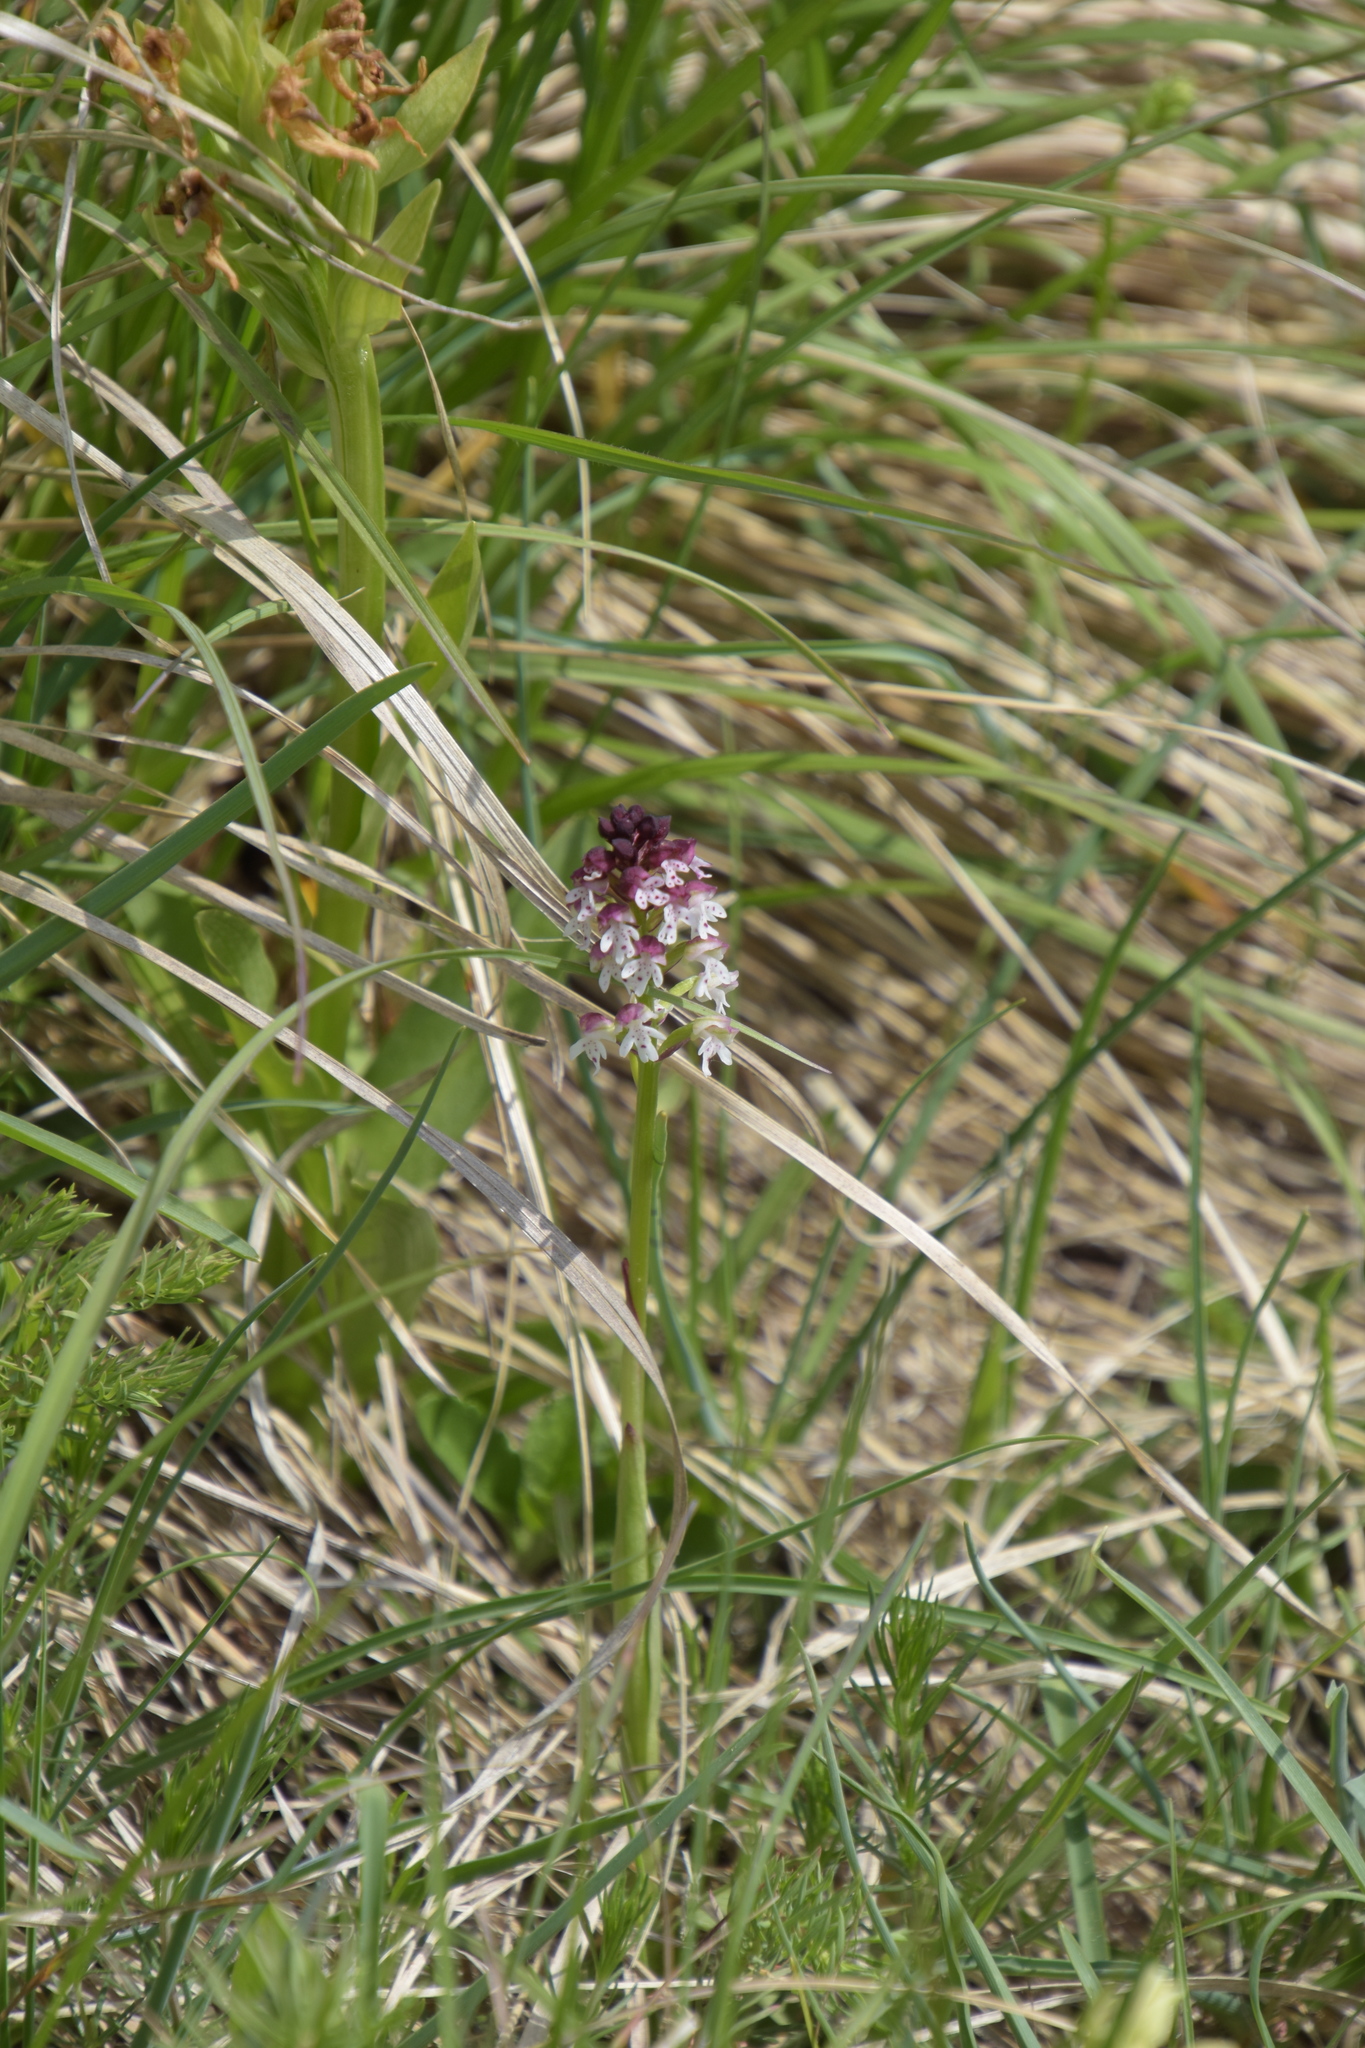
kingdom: Plantae
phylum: Tracheophyta
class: Liliopsida
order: Asparagales
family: Orchidaceae
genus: Neotinea
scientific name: Neotinea ustulata
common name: Burnt orchid
